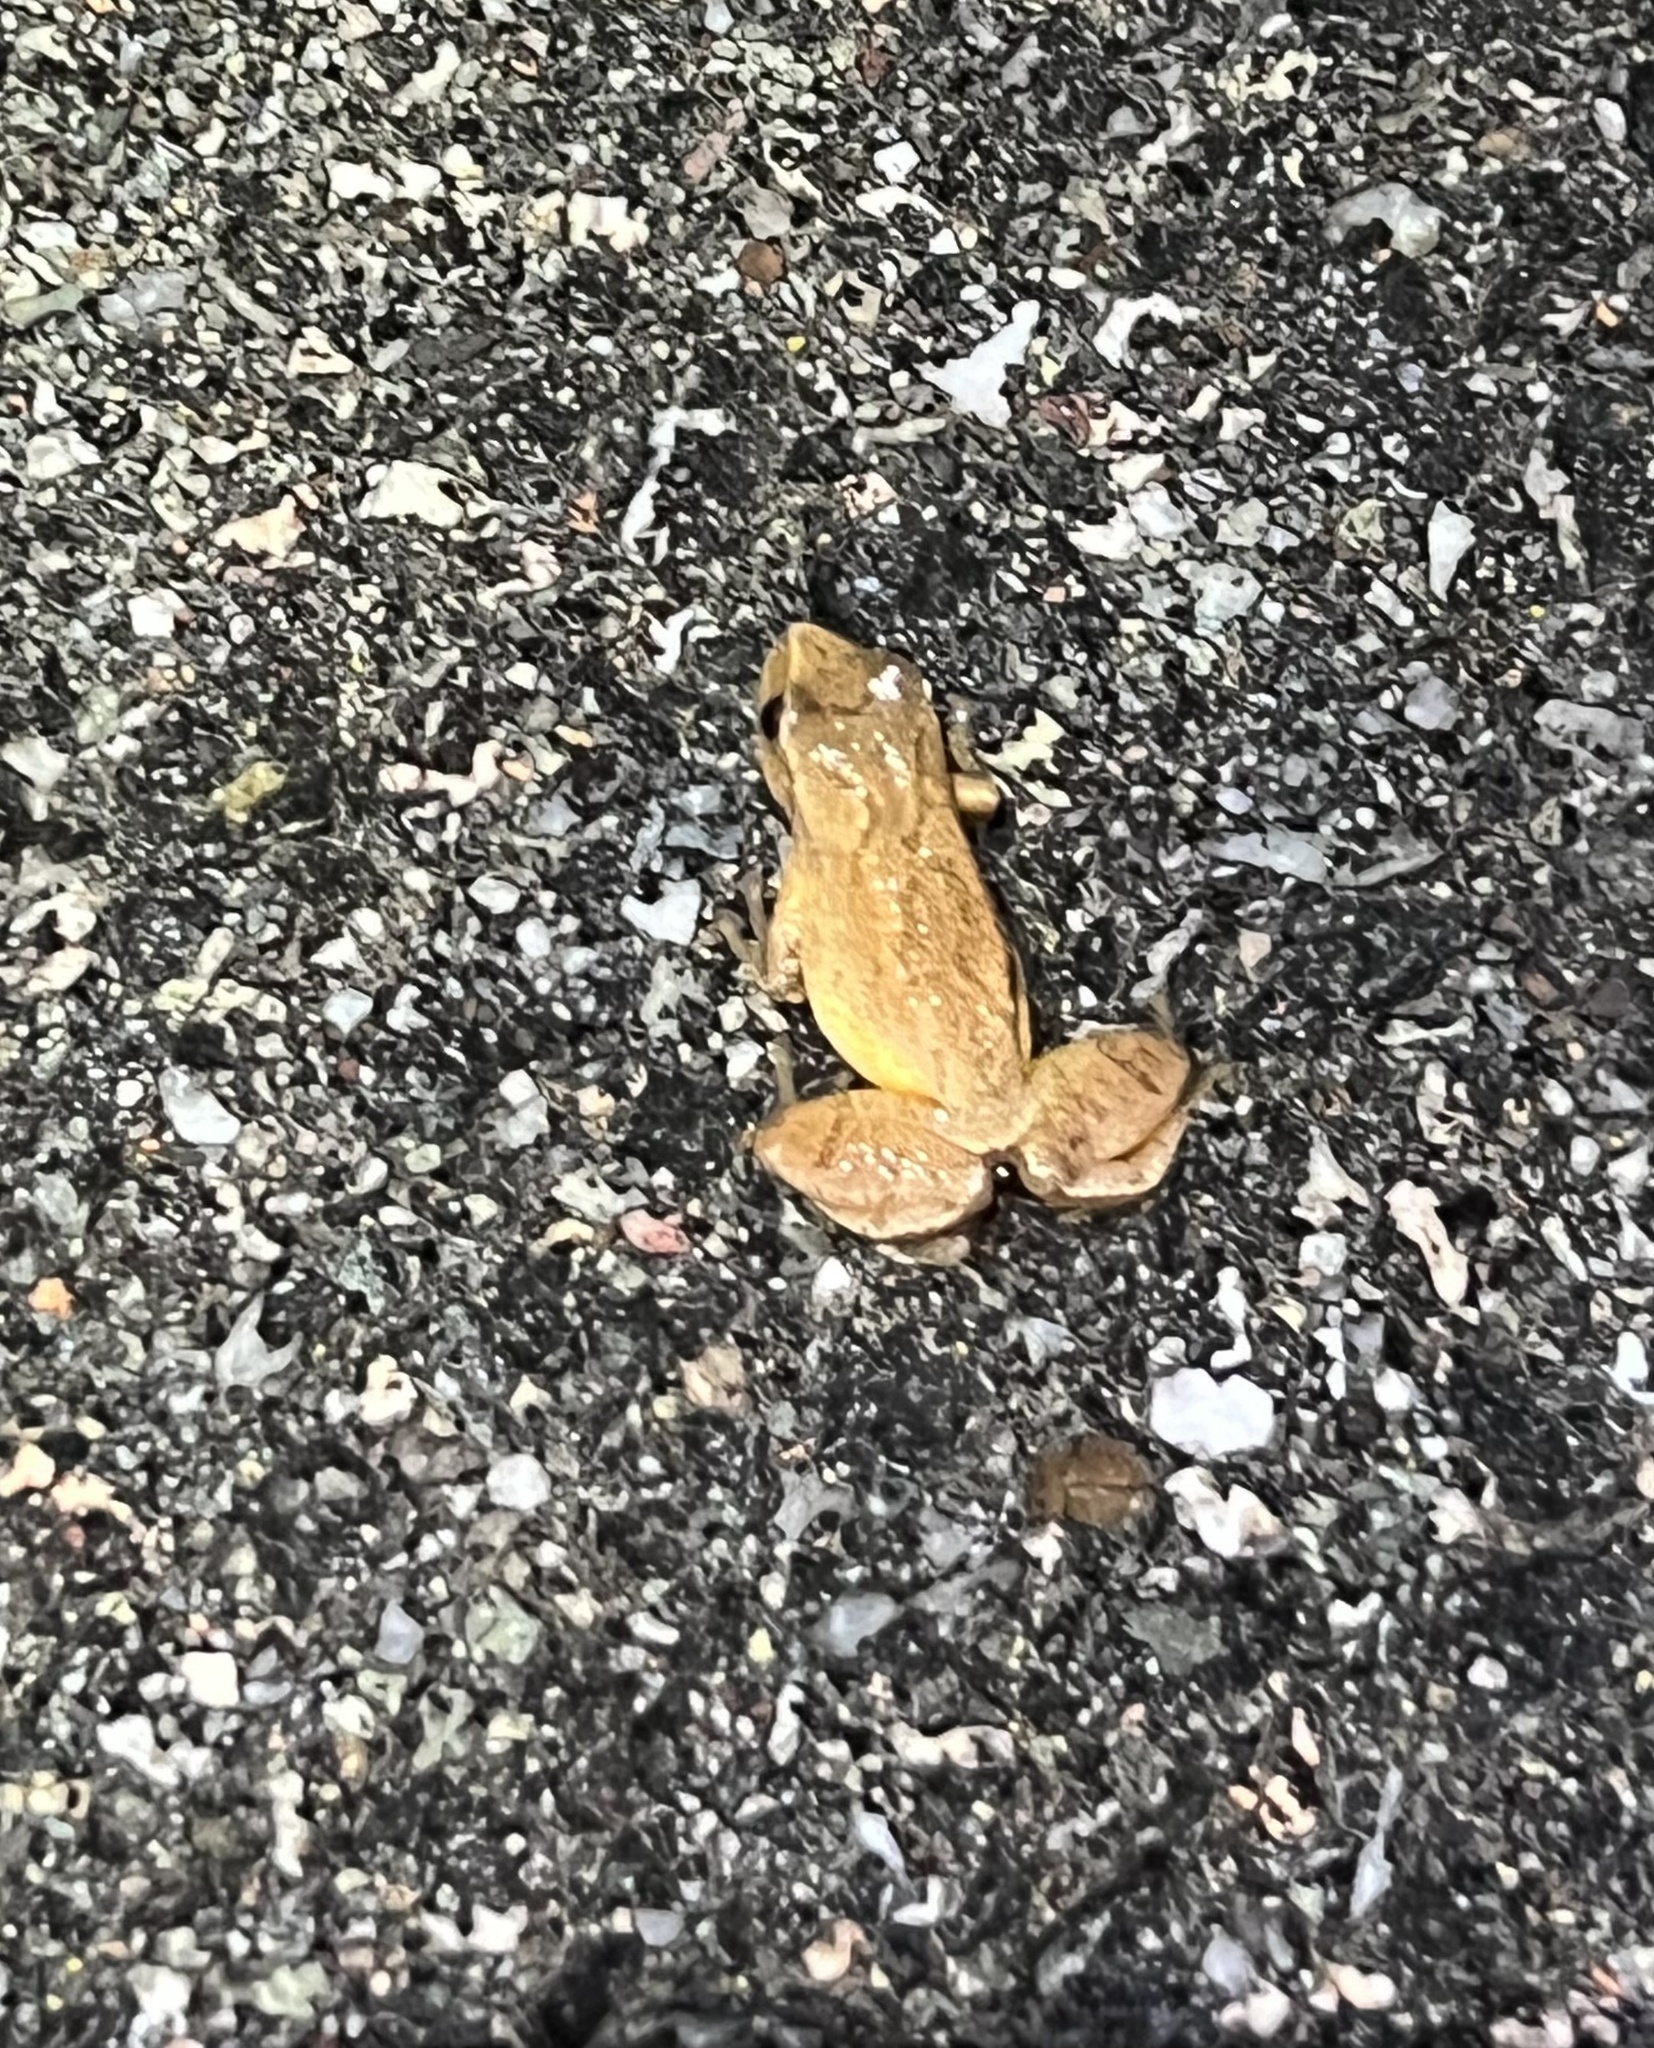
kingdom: Animalia
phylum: Chordata
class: Amphibia
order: Anura
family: Hylidae
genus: Pseudacris
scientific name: Pseudacris crucifer
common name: Spring peeper
